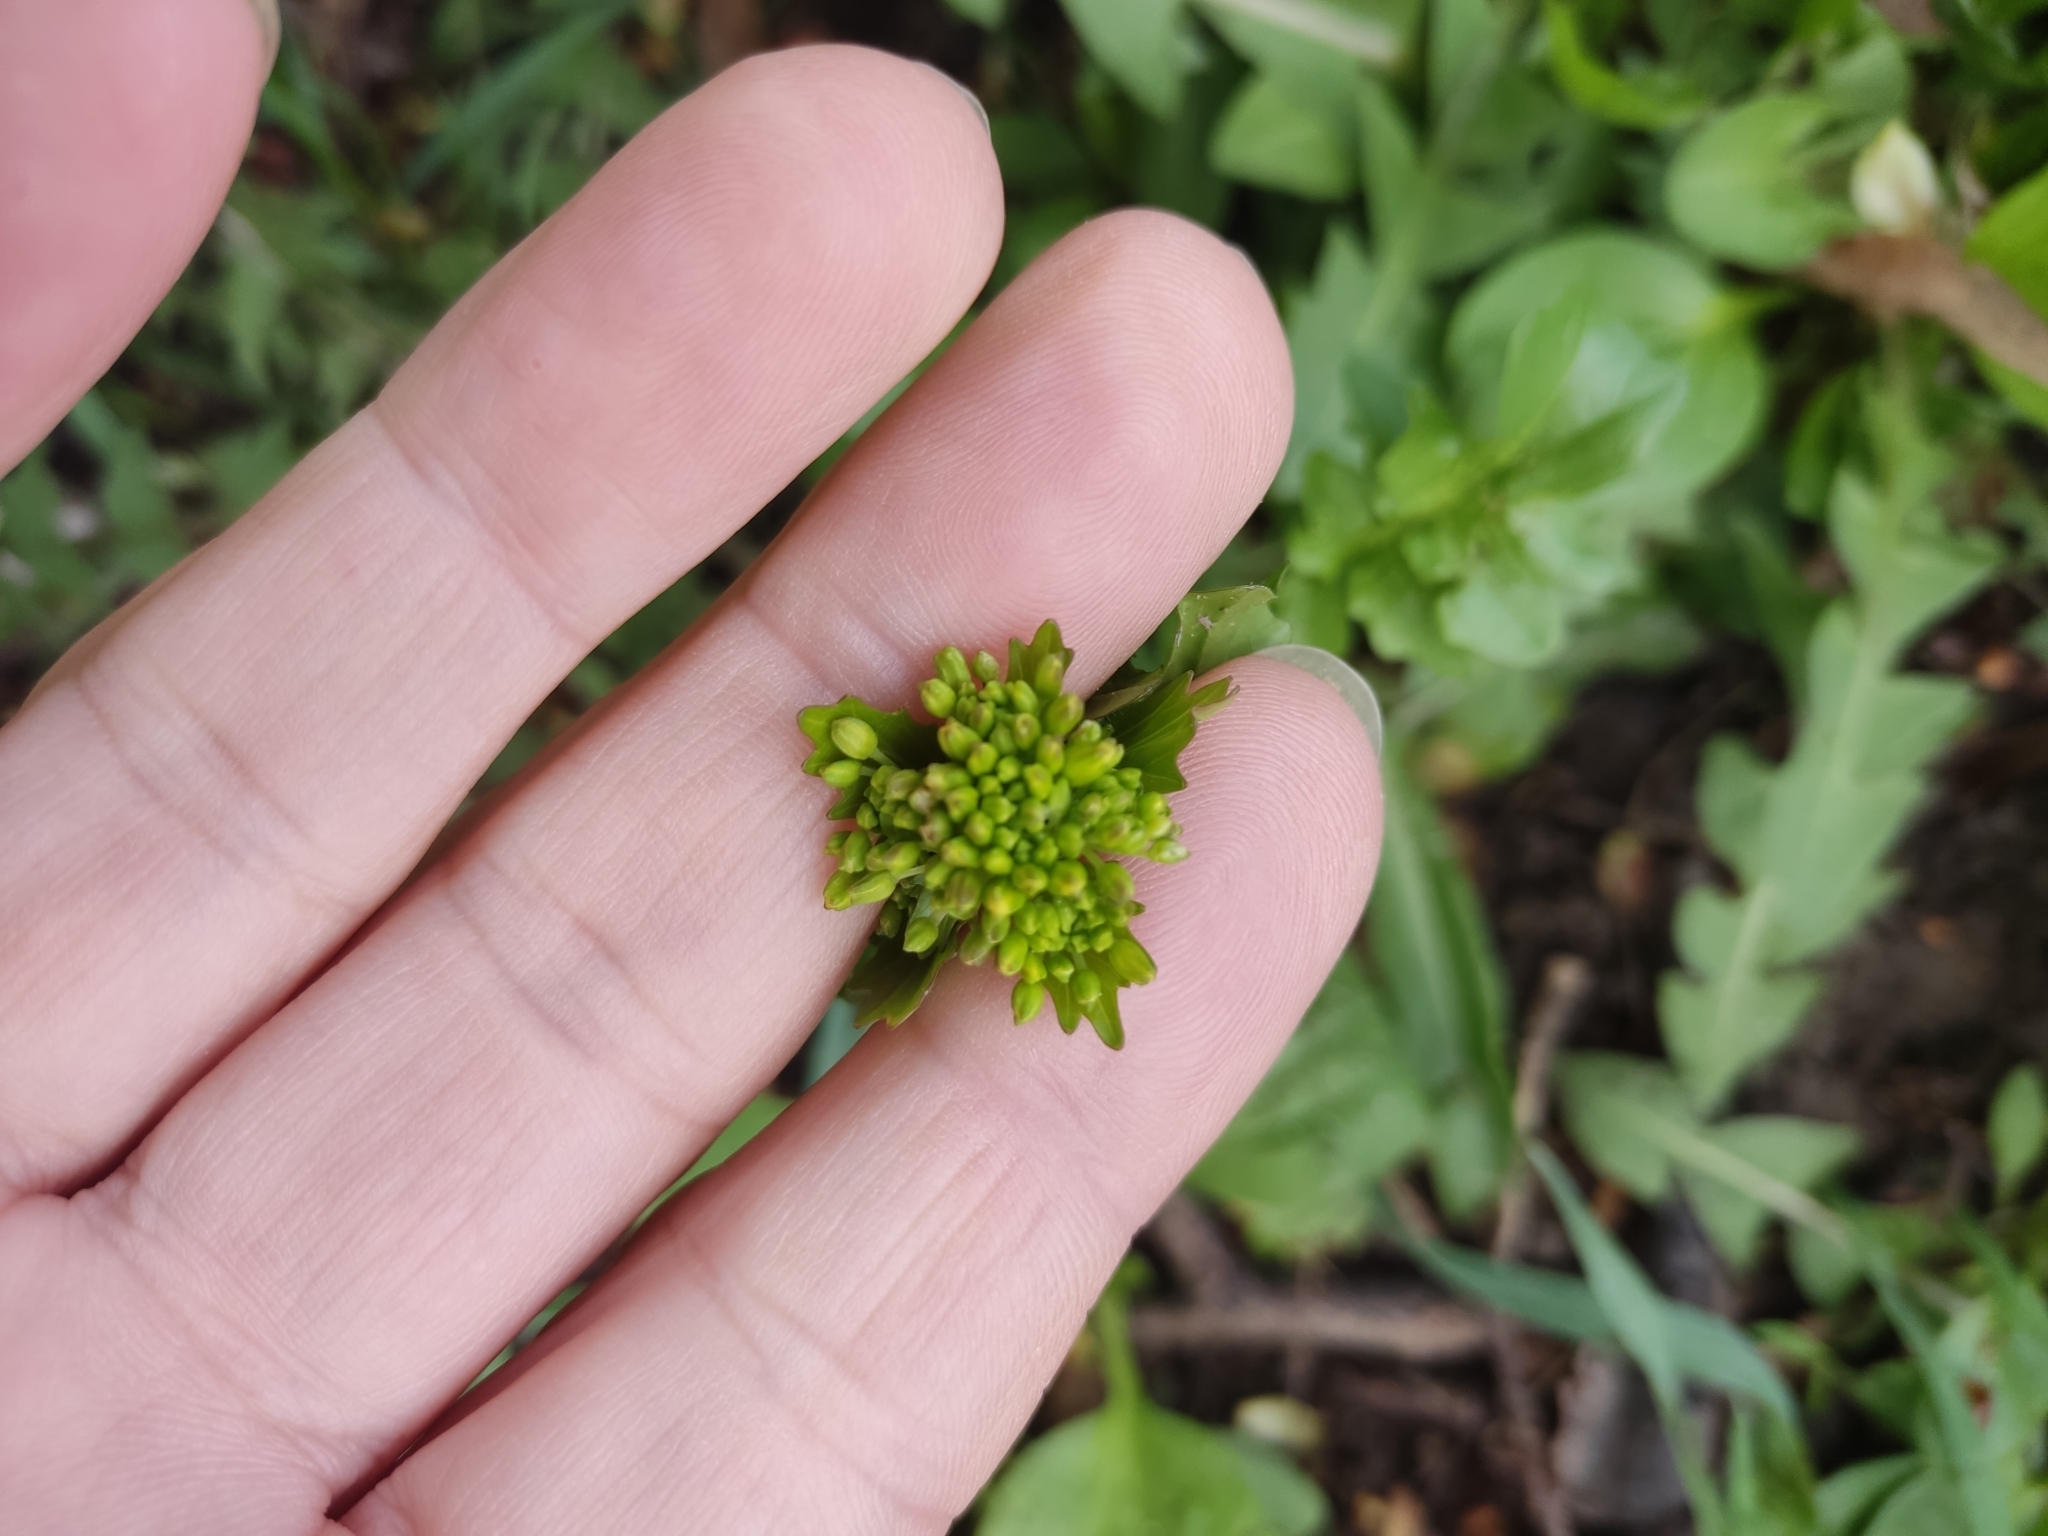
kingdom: Plantae
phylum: Tracheophyta
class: Magnoliopsida
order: Brassicales
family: Brassicaceae
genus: Barbarea
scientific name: Barbarea vulgaris
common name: Cressy-greens
